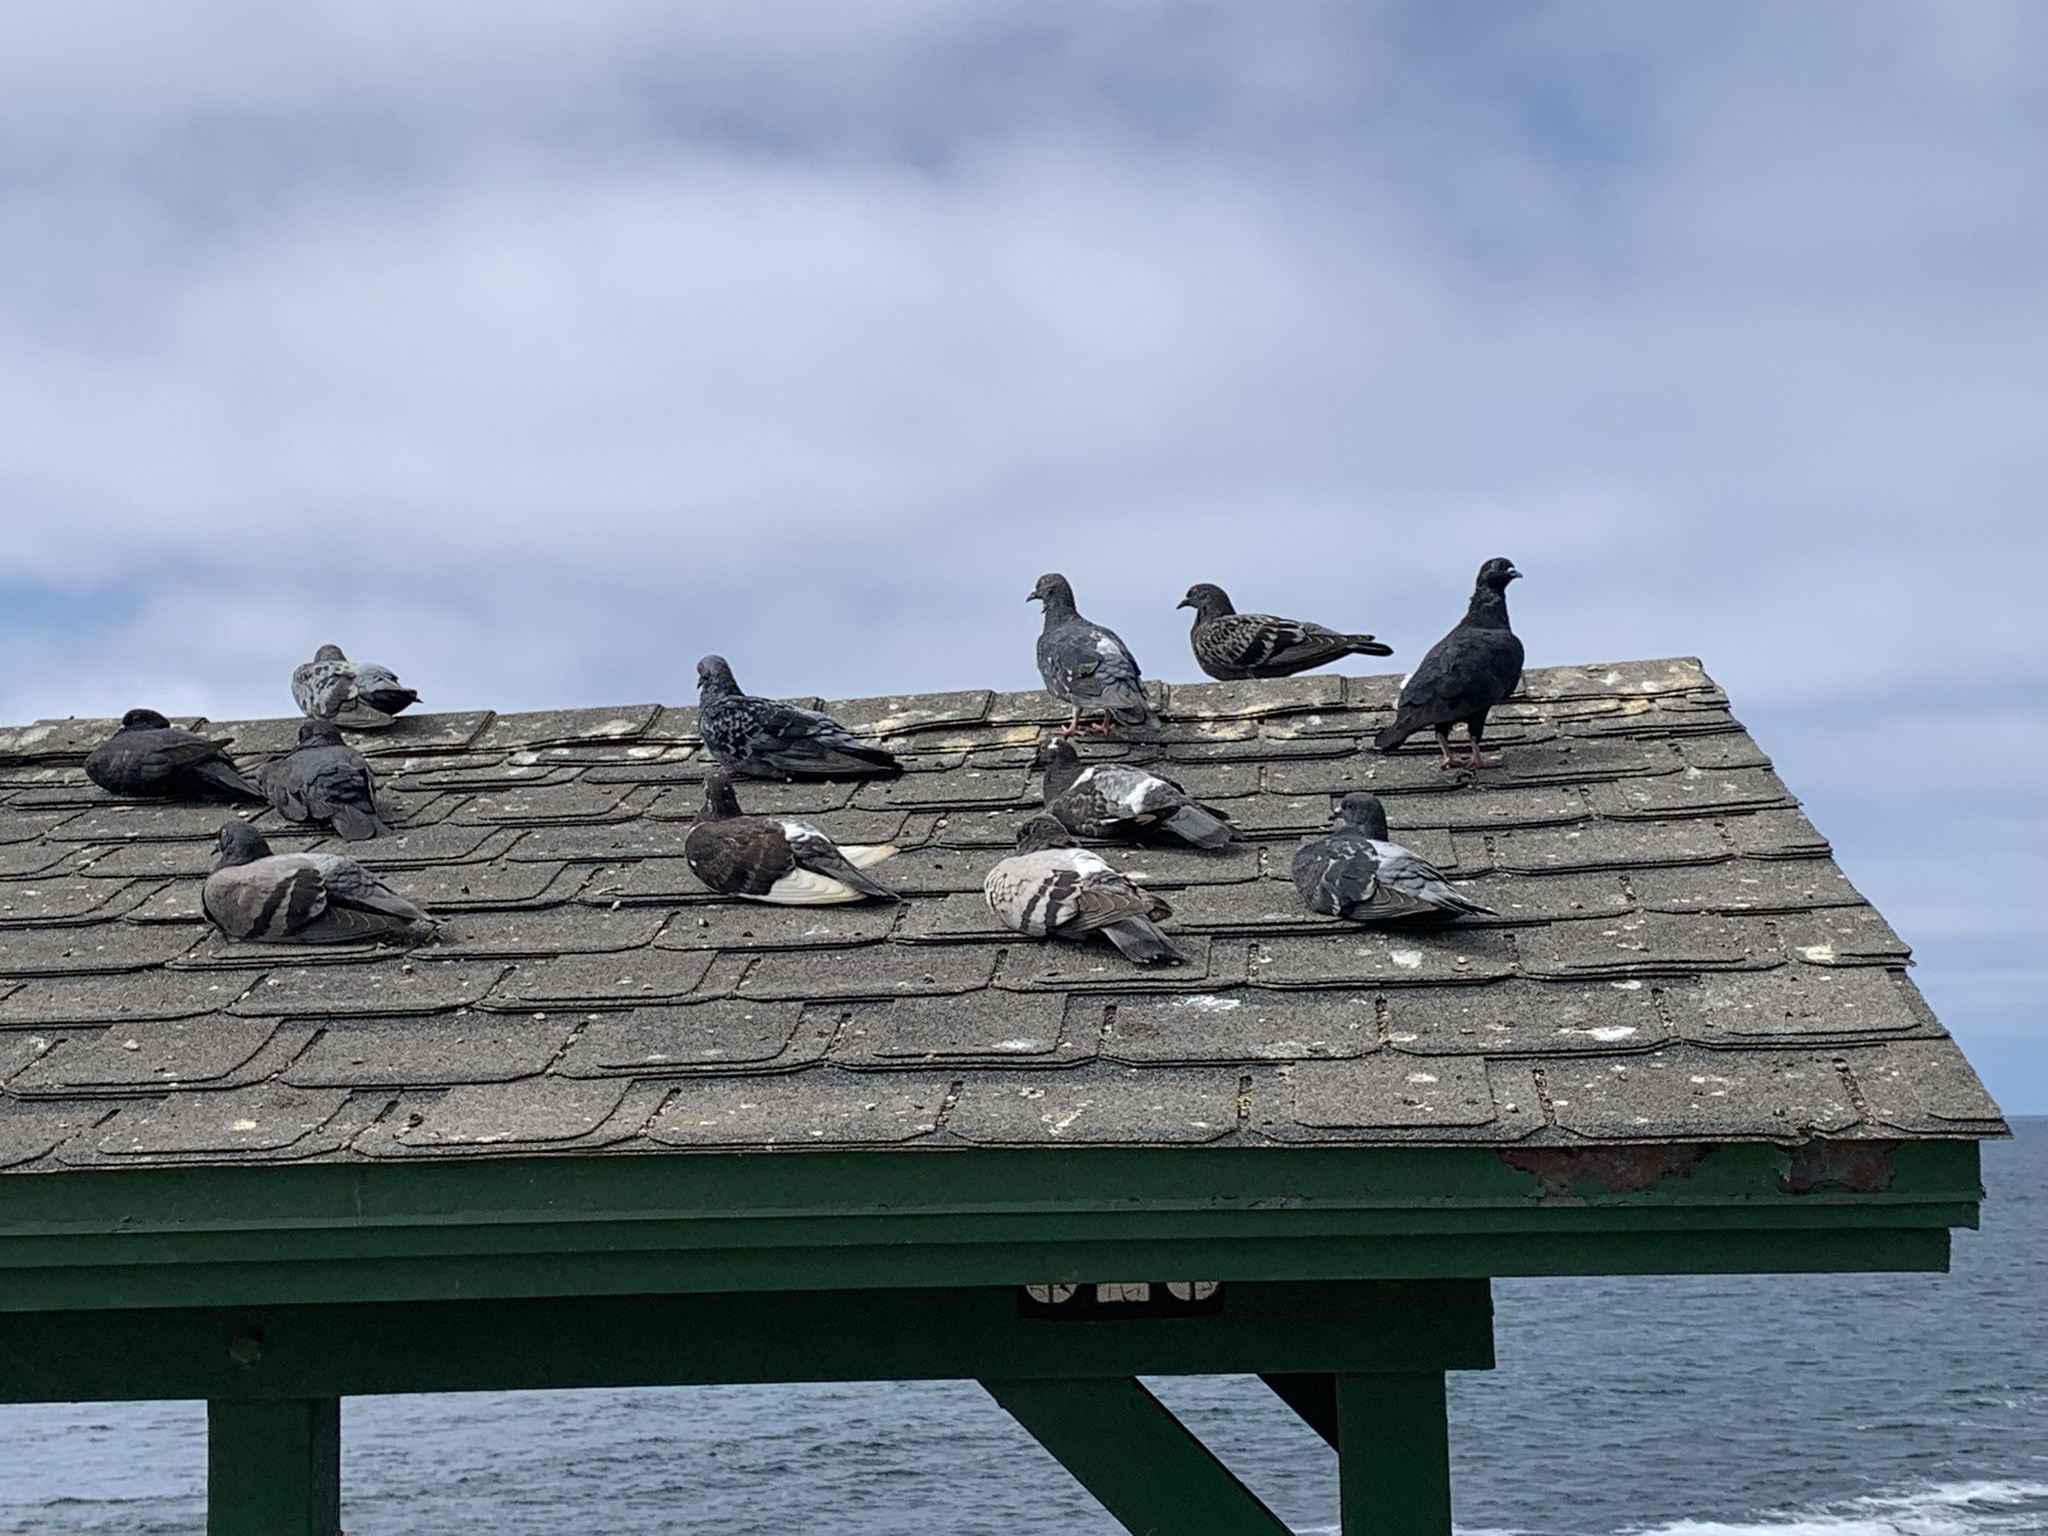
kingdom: Animalia
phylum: Chordata
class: Aves
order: Columbiformes
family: Columbidae
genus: Columba
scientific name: Columba livia
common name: Rock pigeon
